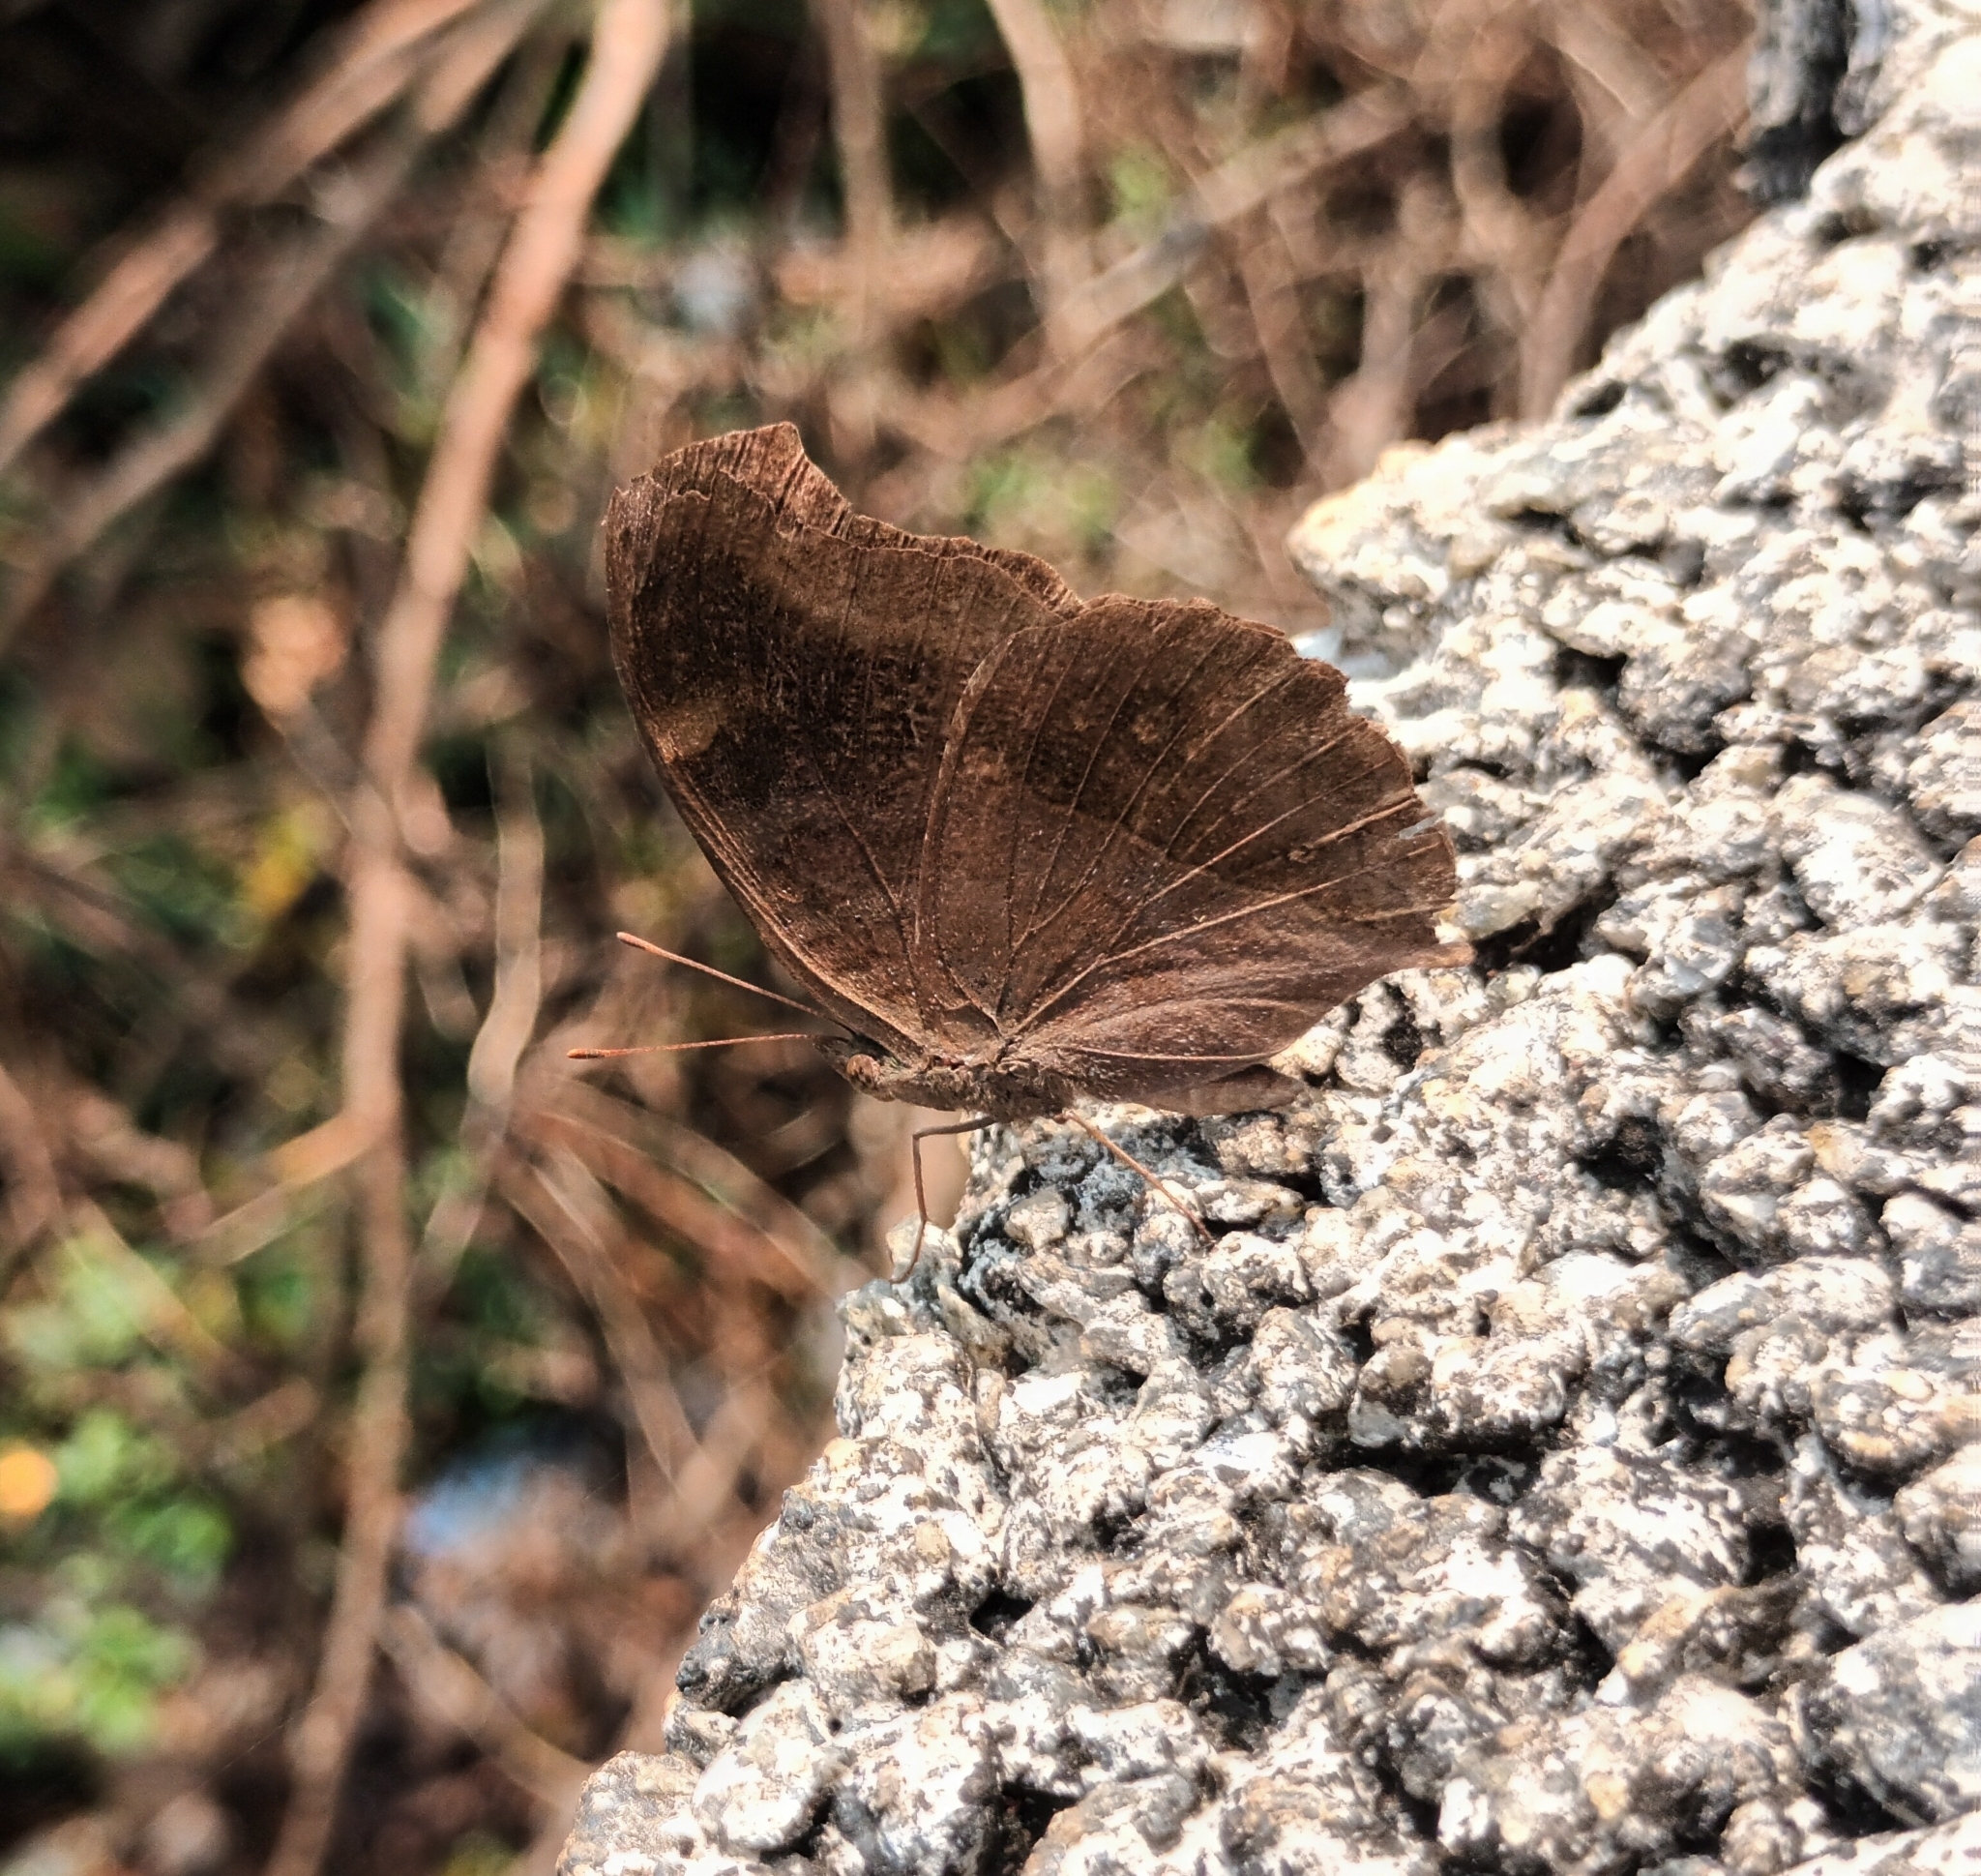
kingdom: Animalia
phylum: Arthropoda
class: Insecta
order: Lepidoptera
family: Nymphalidae
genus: Junonia
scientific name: Junonia iphita
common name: Chocolate pansy
